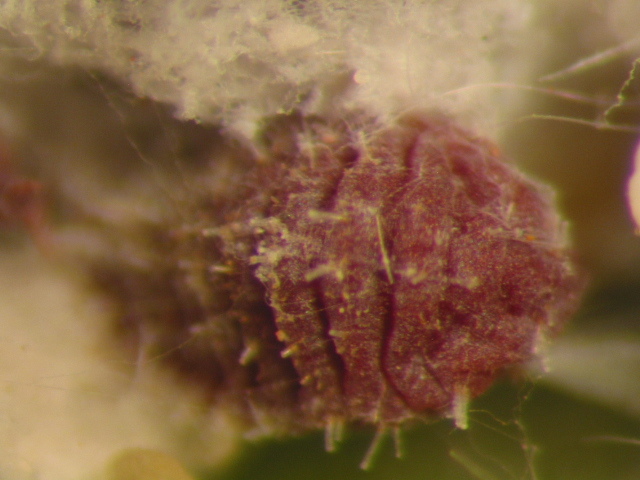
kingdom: Animalia
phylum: Arthropoda
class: Insecta
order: Hemiptera
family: Dactylopiidae
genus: Dactylopius
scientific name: Dactylopius tomentosus
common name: Tomentose cochineal scale
